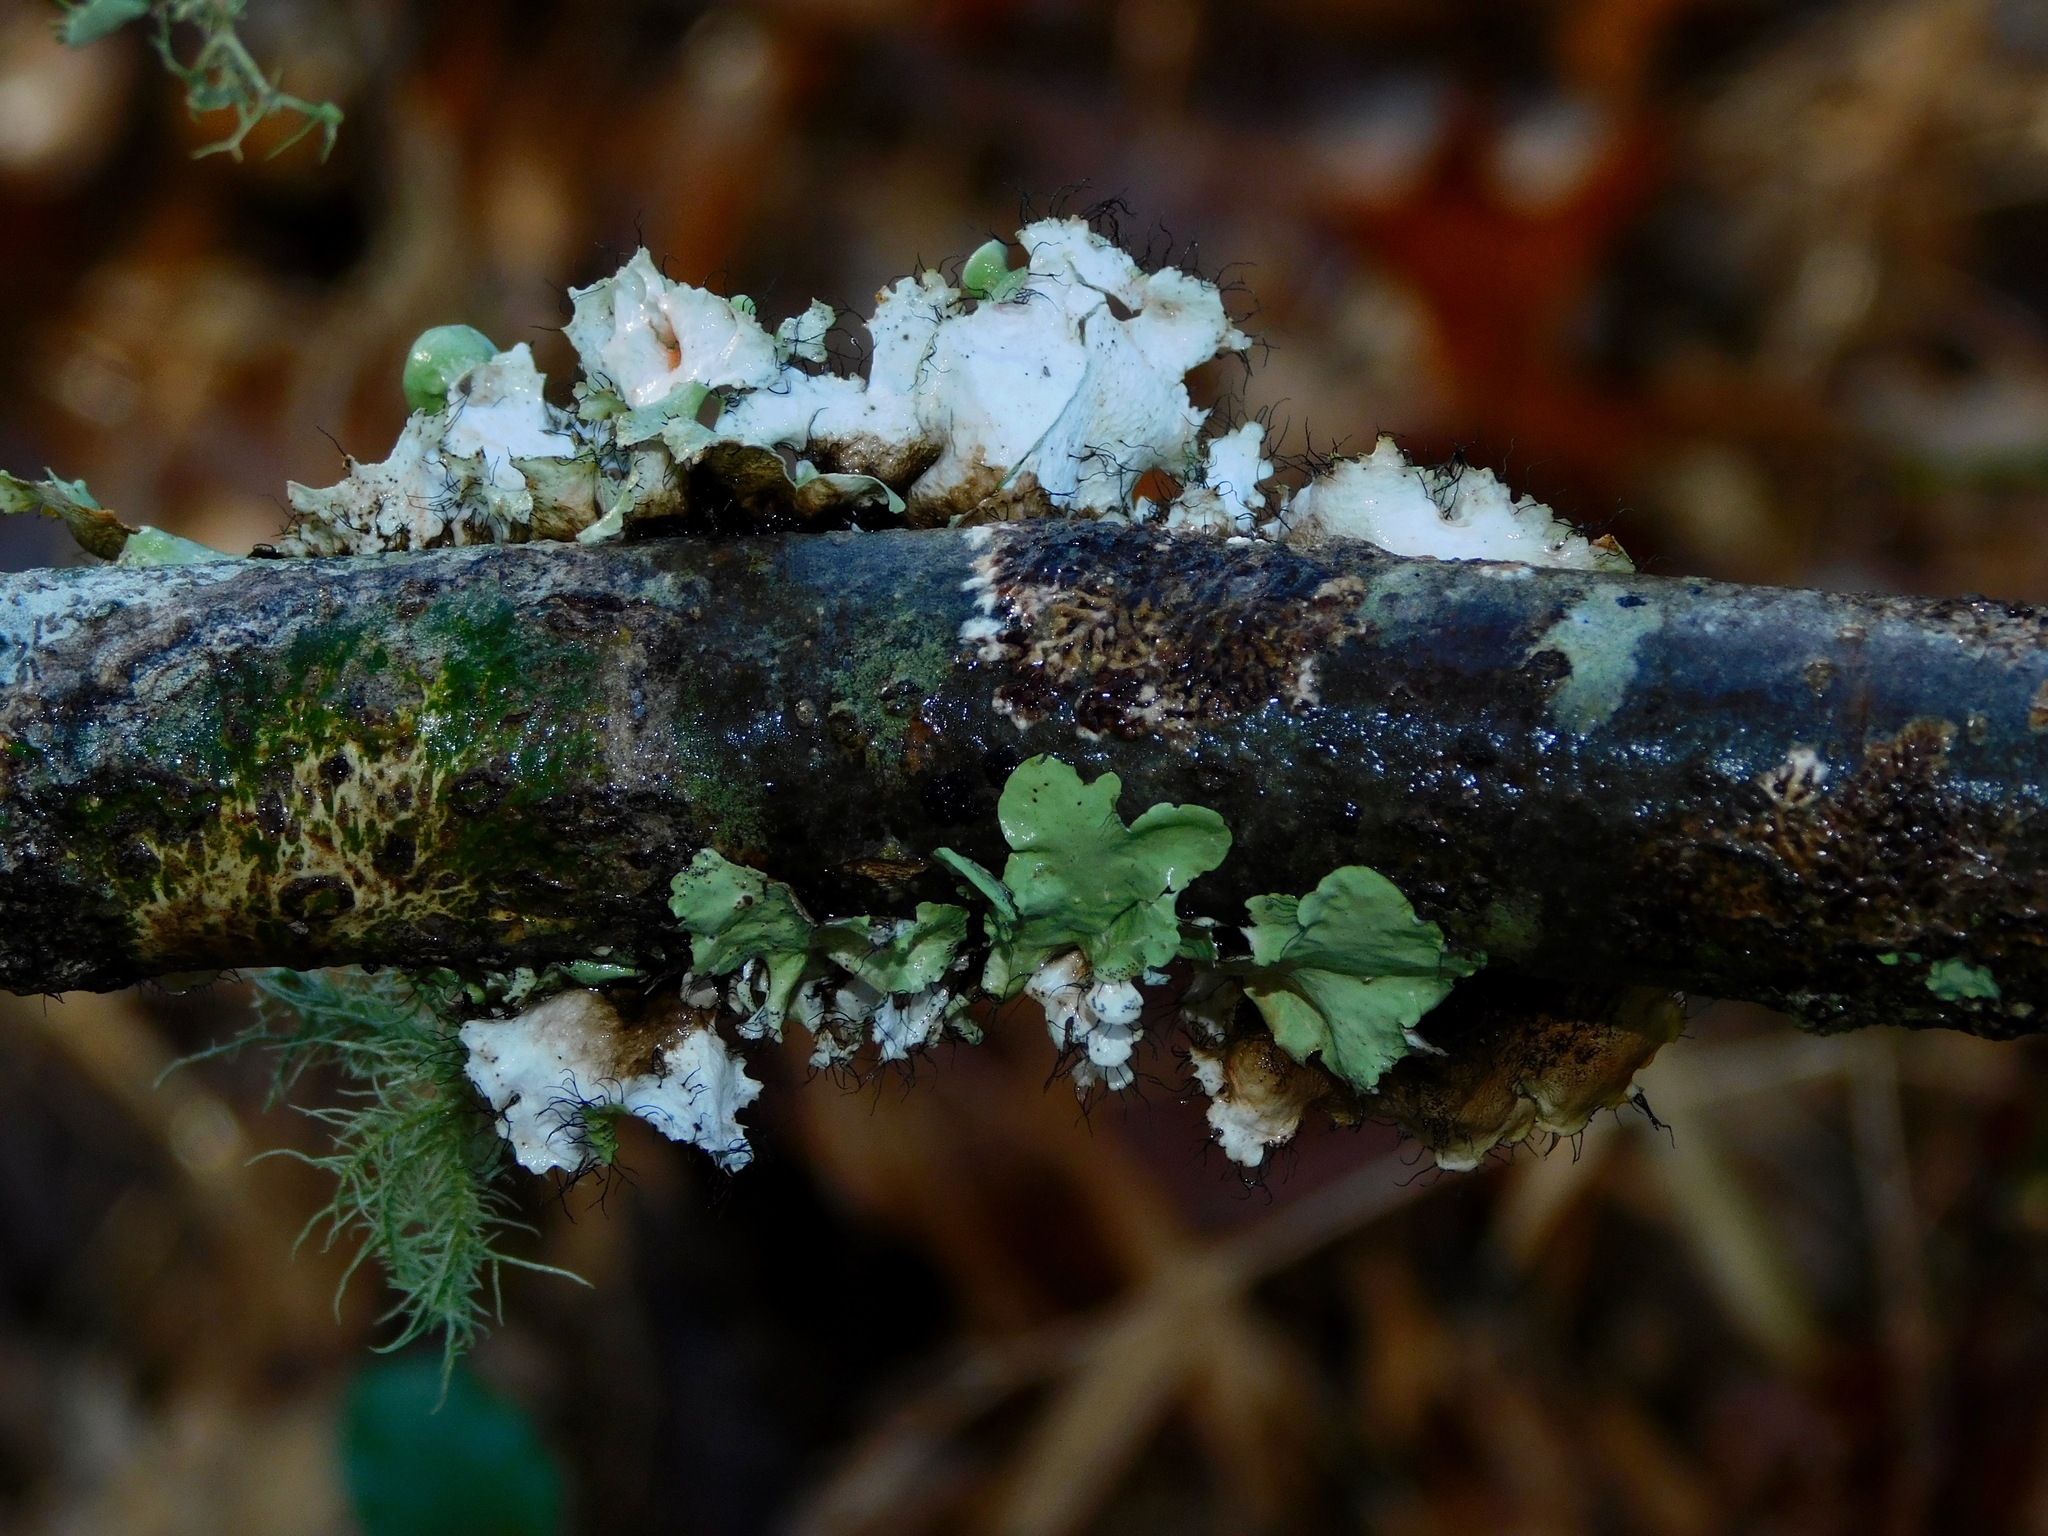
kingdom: Fungi
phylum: Ascomycota
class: Lecanoromycetes
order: Lecanorales
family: Parmeliaceae
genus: Parmotrema
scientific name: Parmotrema subrigidum
